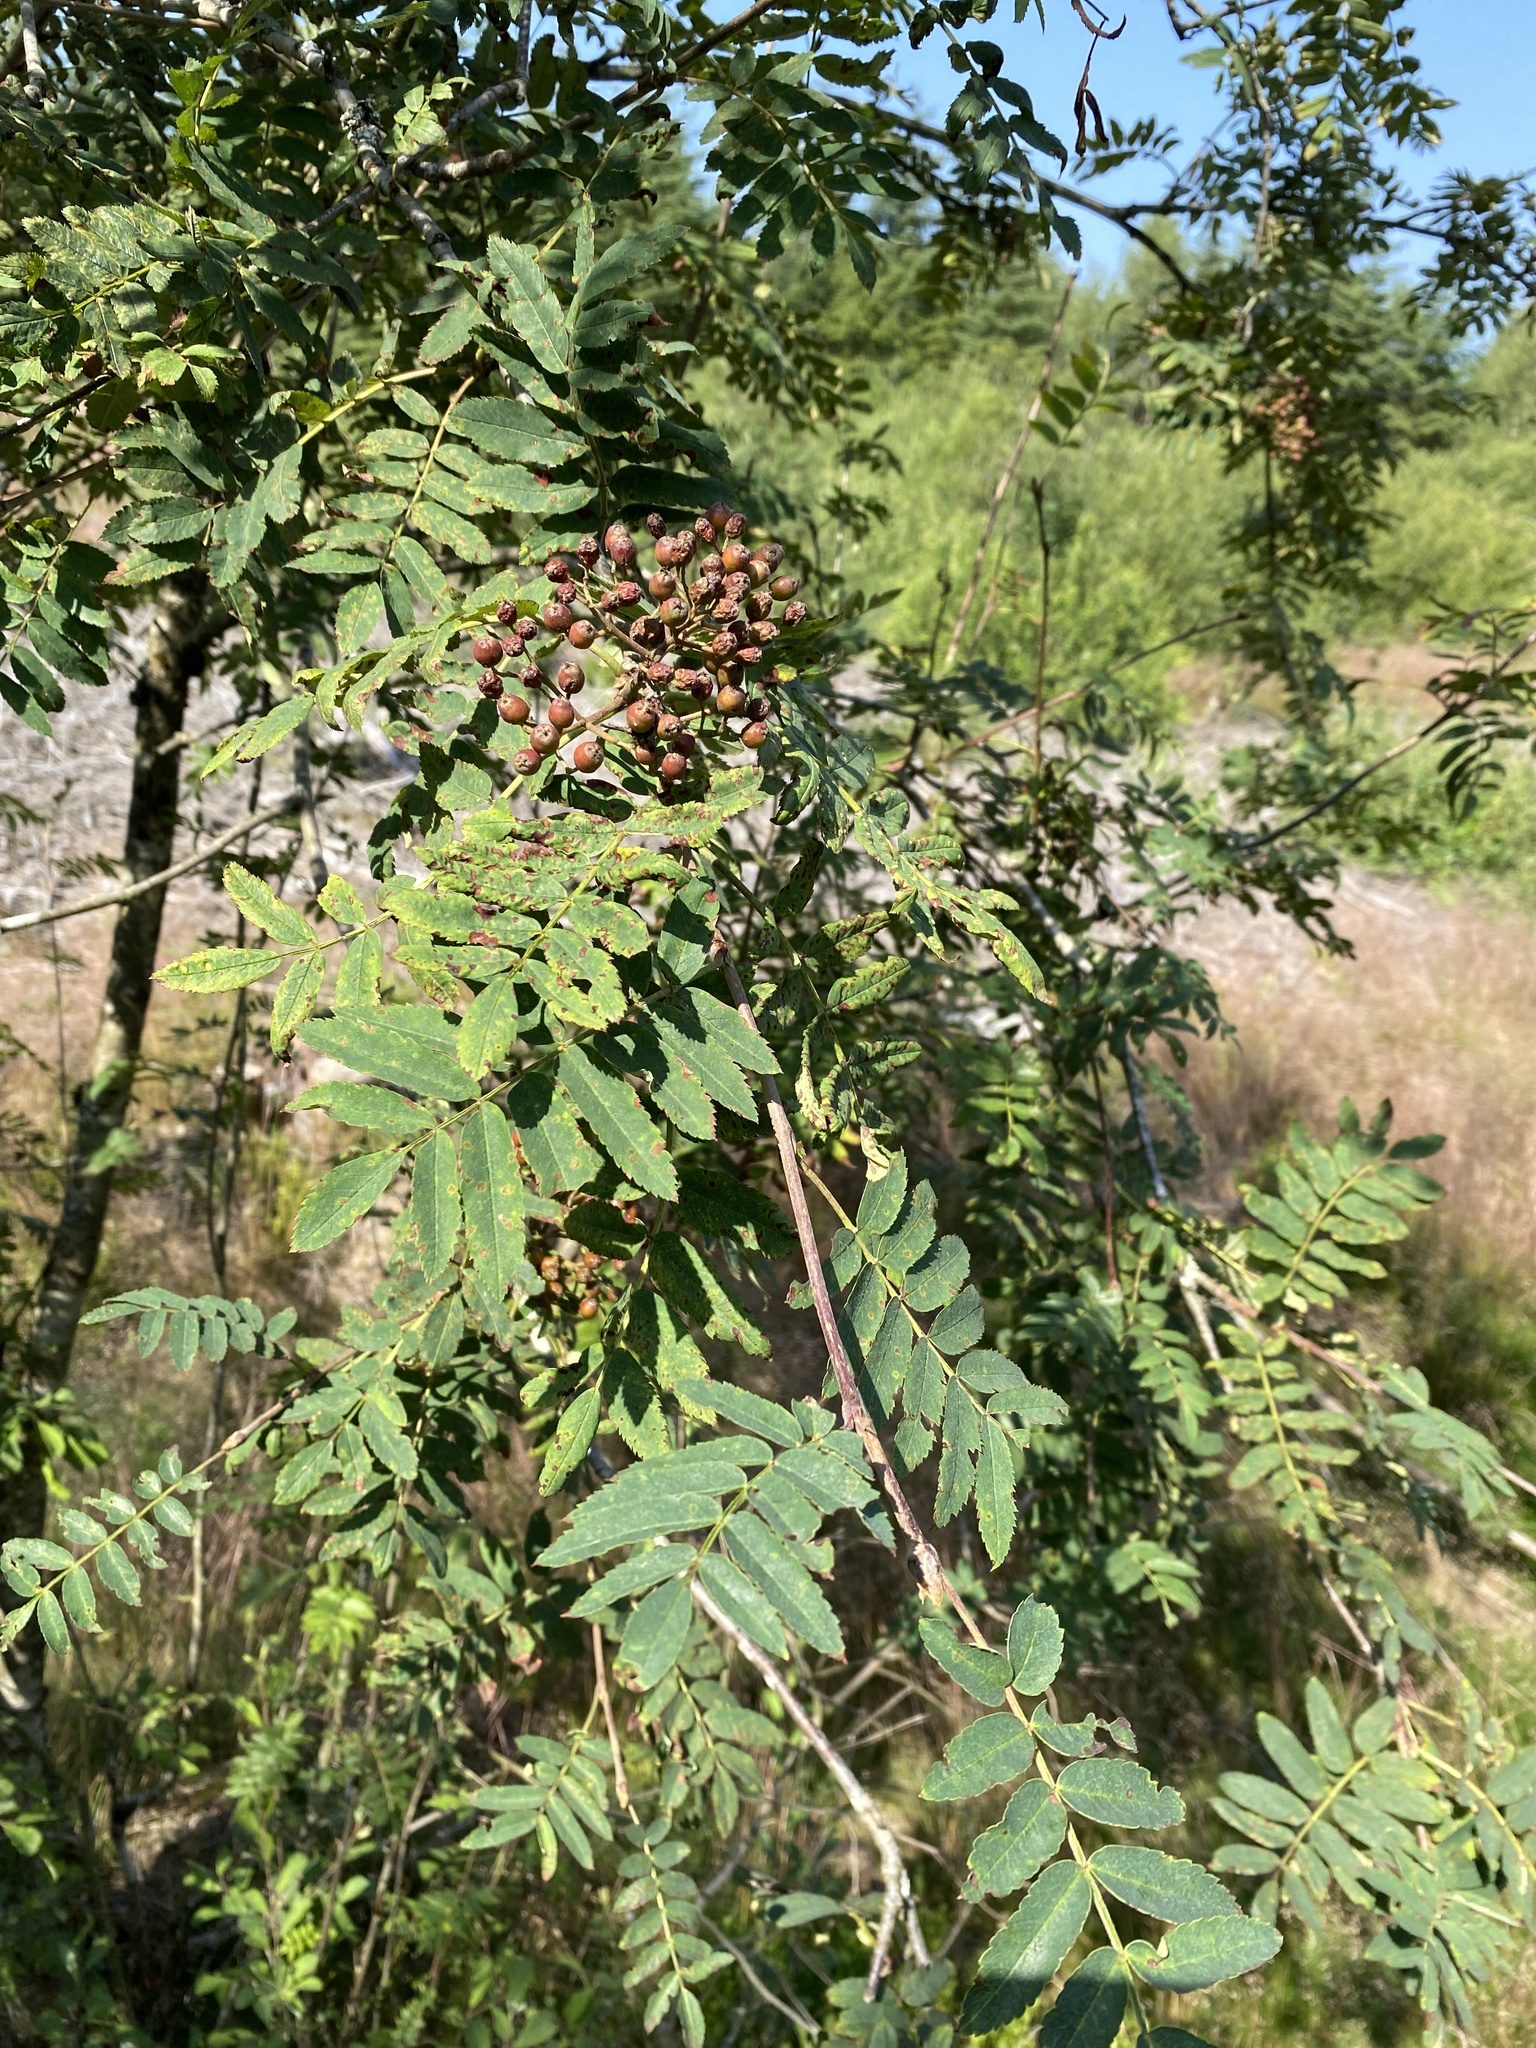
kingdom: Plantae
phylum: Tracheophyta
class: Magnoliopsida
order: Rosales
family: Rosaceae
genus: Sorbus
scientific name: Sorbus aucuparia
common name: Rowan
